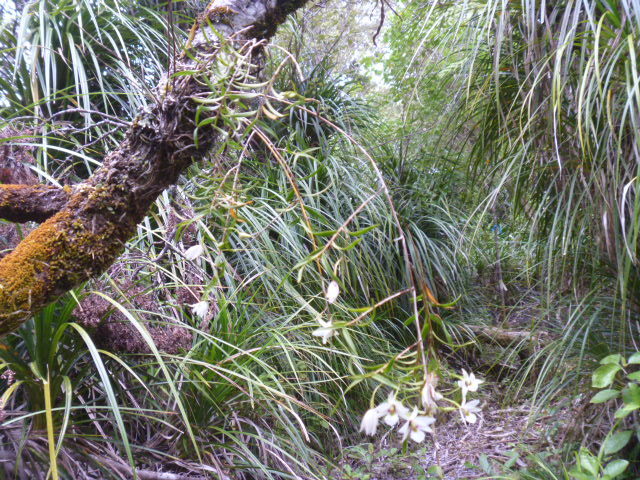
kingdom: Plantae
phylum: Tracheophyta
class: Liliopsida
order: Asparagales
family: Orchidaceae
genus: Dendrobium
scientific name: Dendrobium cunninghamii
